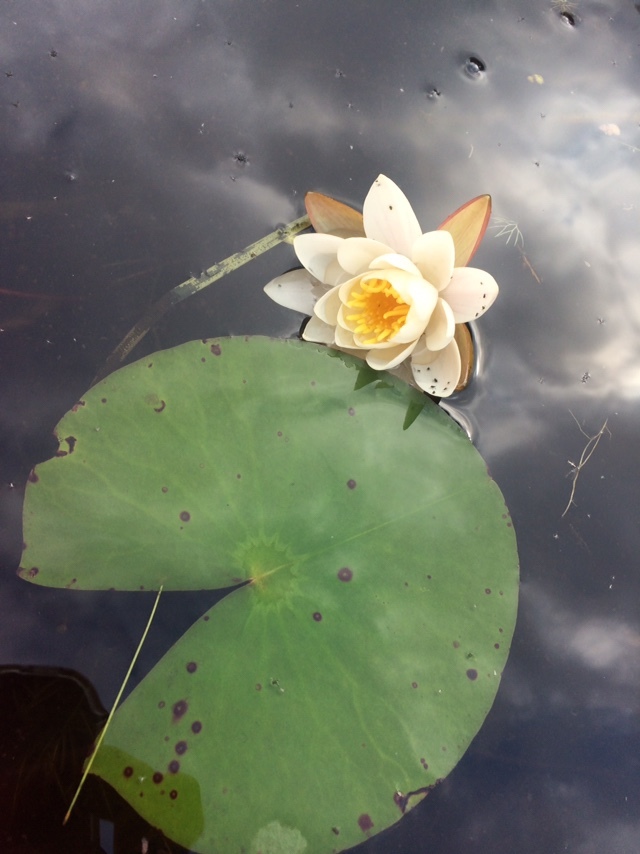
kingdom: Plantae
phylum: Tracheophyta
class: Magnoliopsida
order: Nymphaeales
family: Nymphaeaceae
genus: Nymphaea
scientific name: Nymphaea odorata
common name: Fragrant water-lily
